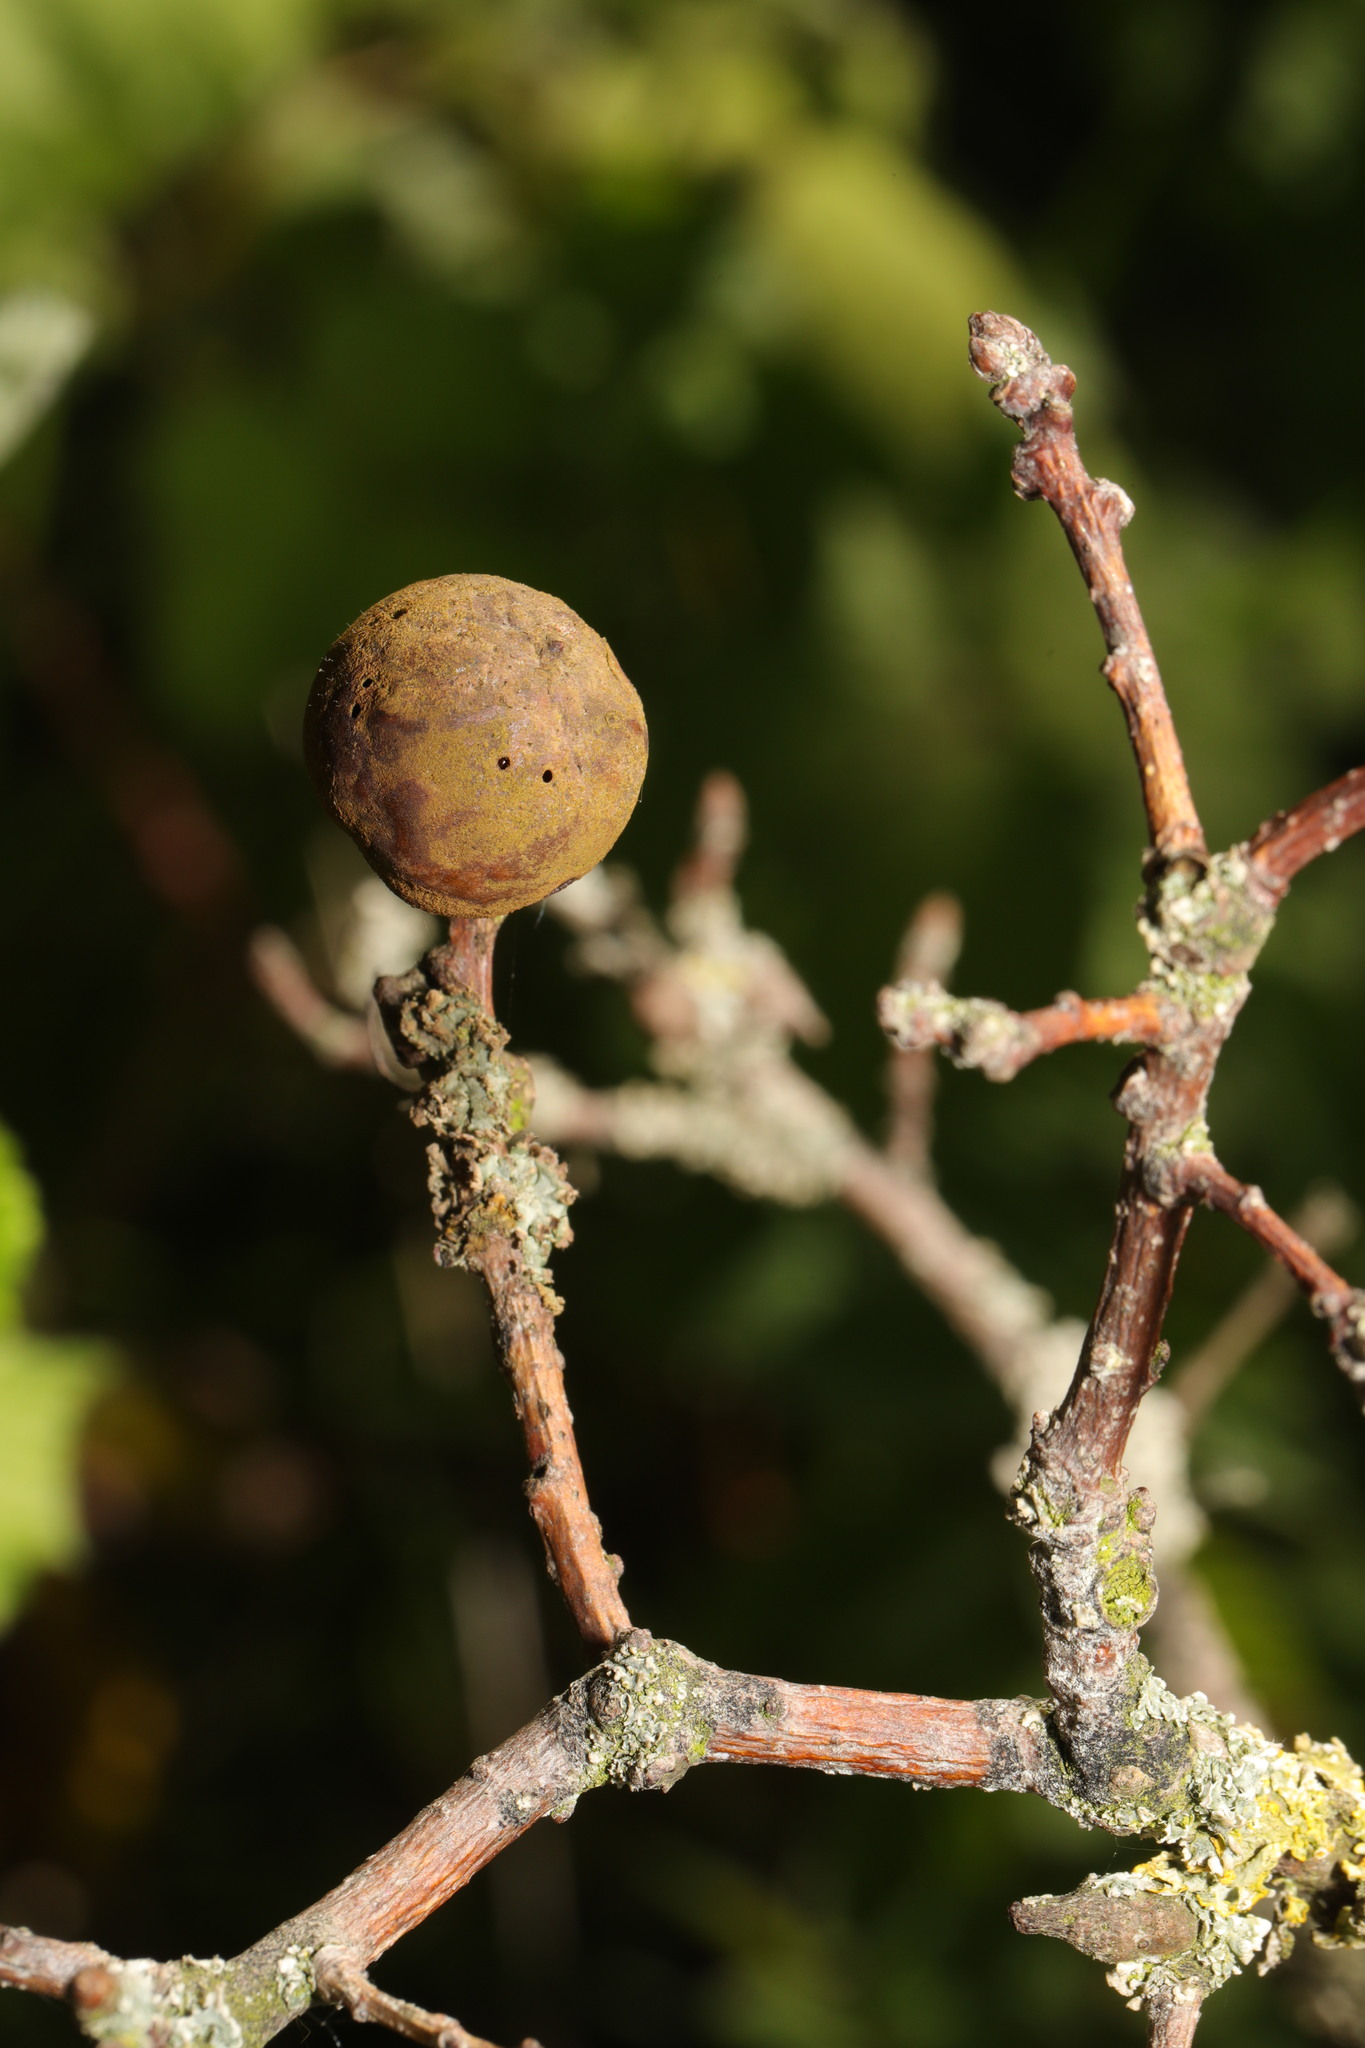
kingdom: Animalia
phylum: Arthropoda
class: Insecta
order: Hymenoptera
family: Cynipidae
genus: Andricus
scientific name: Andricus kollari
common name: Marble gall
